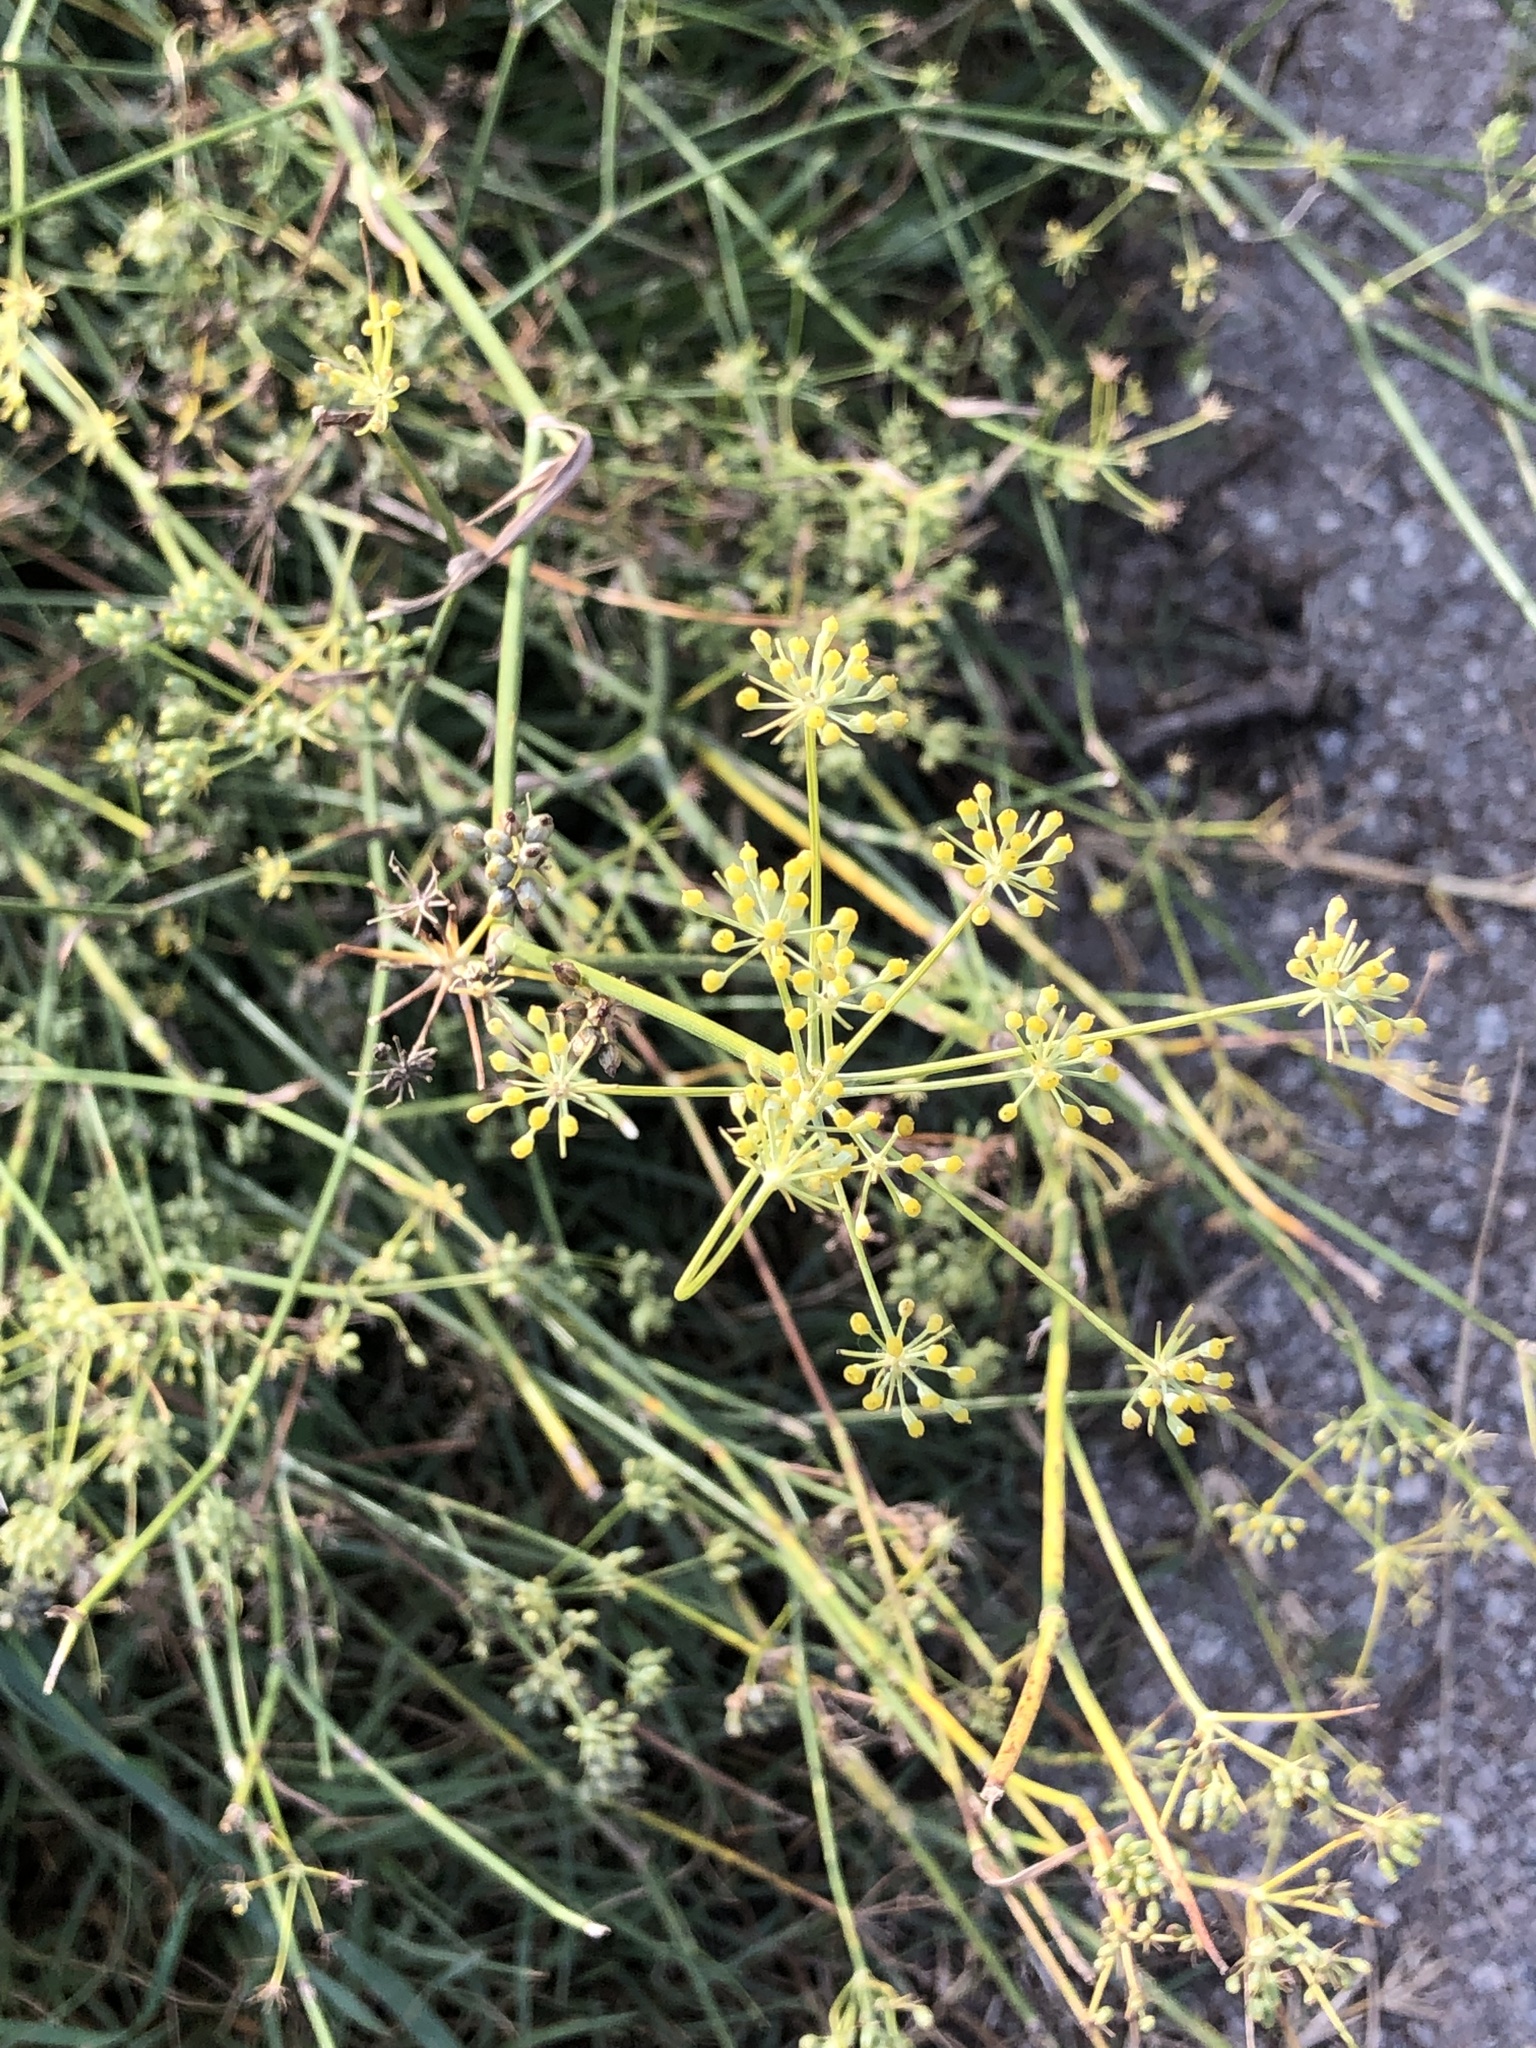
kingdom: Plantae
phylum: Tracheophyta
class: Magnoliopsida
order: Apiales
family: Apiaceae
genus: Foeniculum
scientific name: Foeniculum vulgare
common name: Fennel
